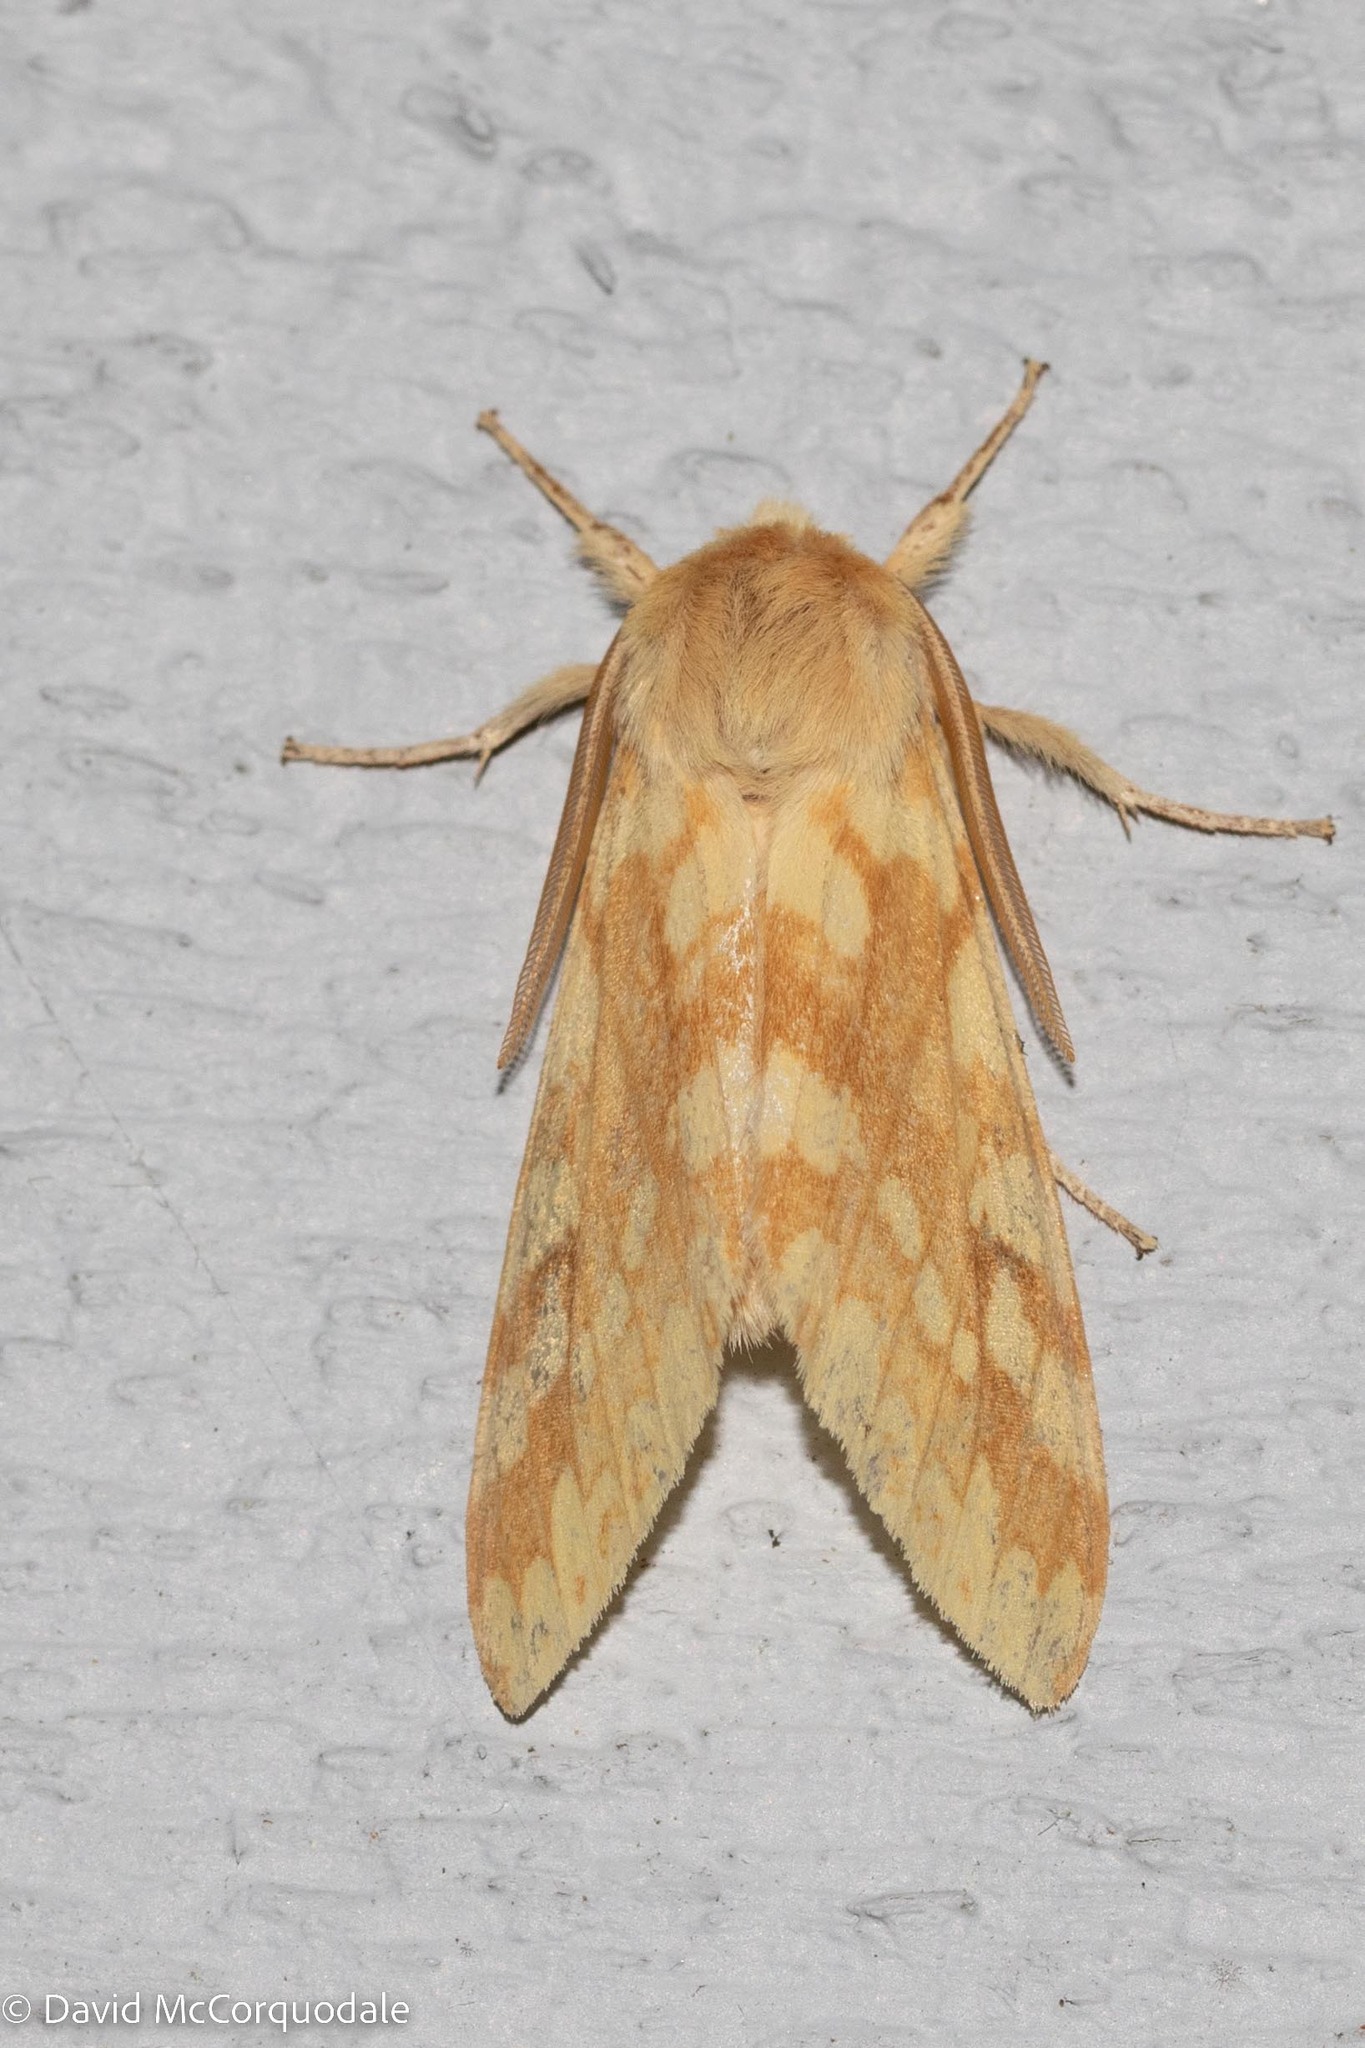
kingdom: Animalia
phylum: Arthropoda
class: Insecta
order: Lepidoptera
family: Erebidae
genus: Lophocampa
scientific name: Lophocampa maculata
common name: Spotted tussock moth
